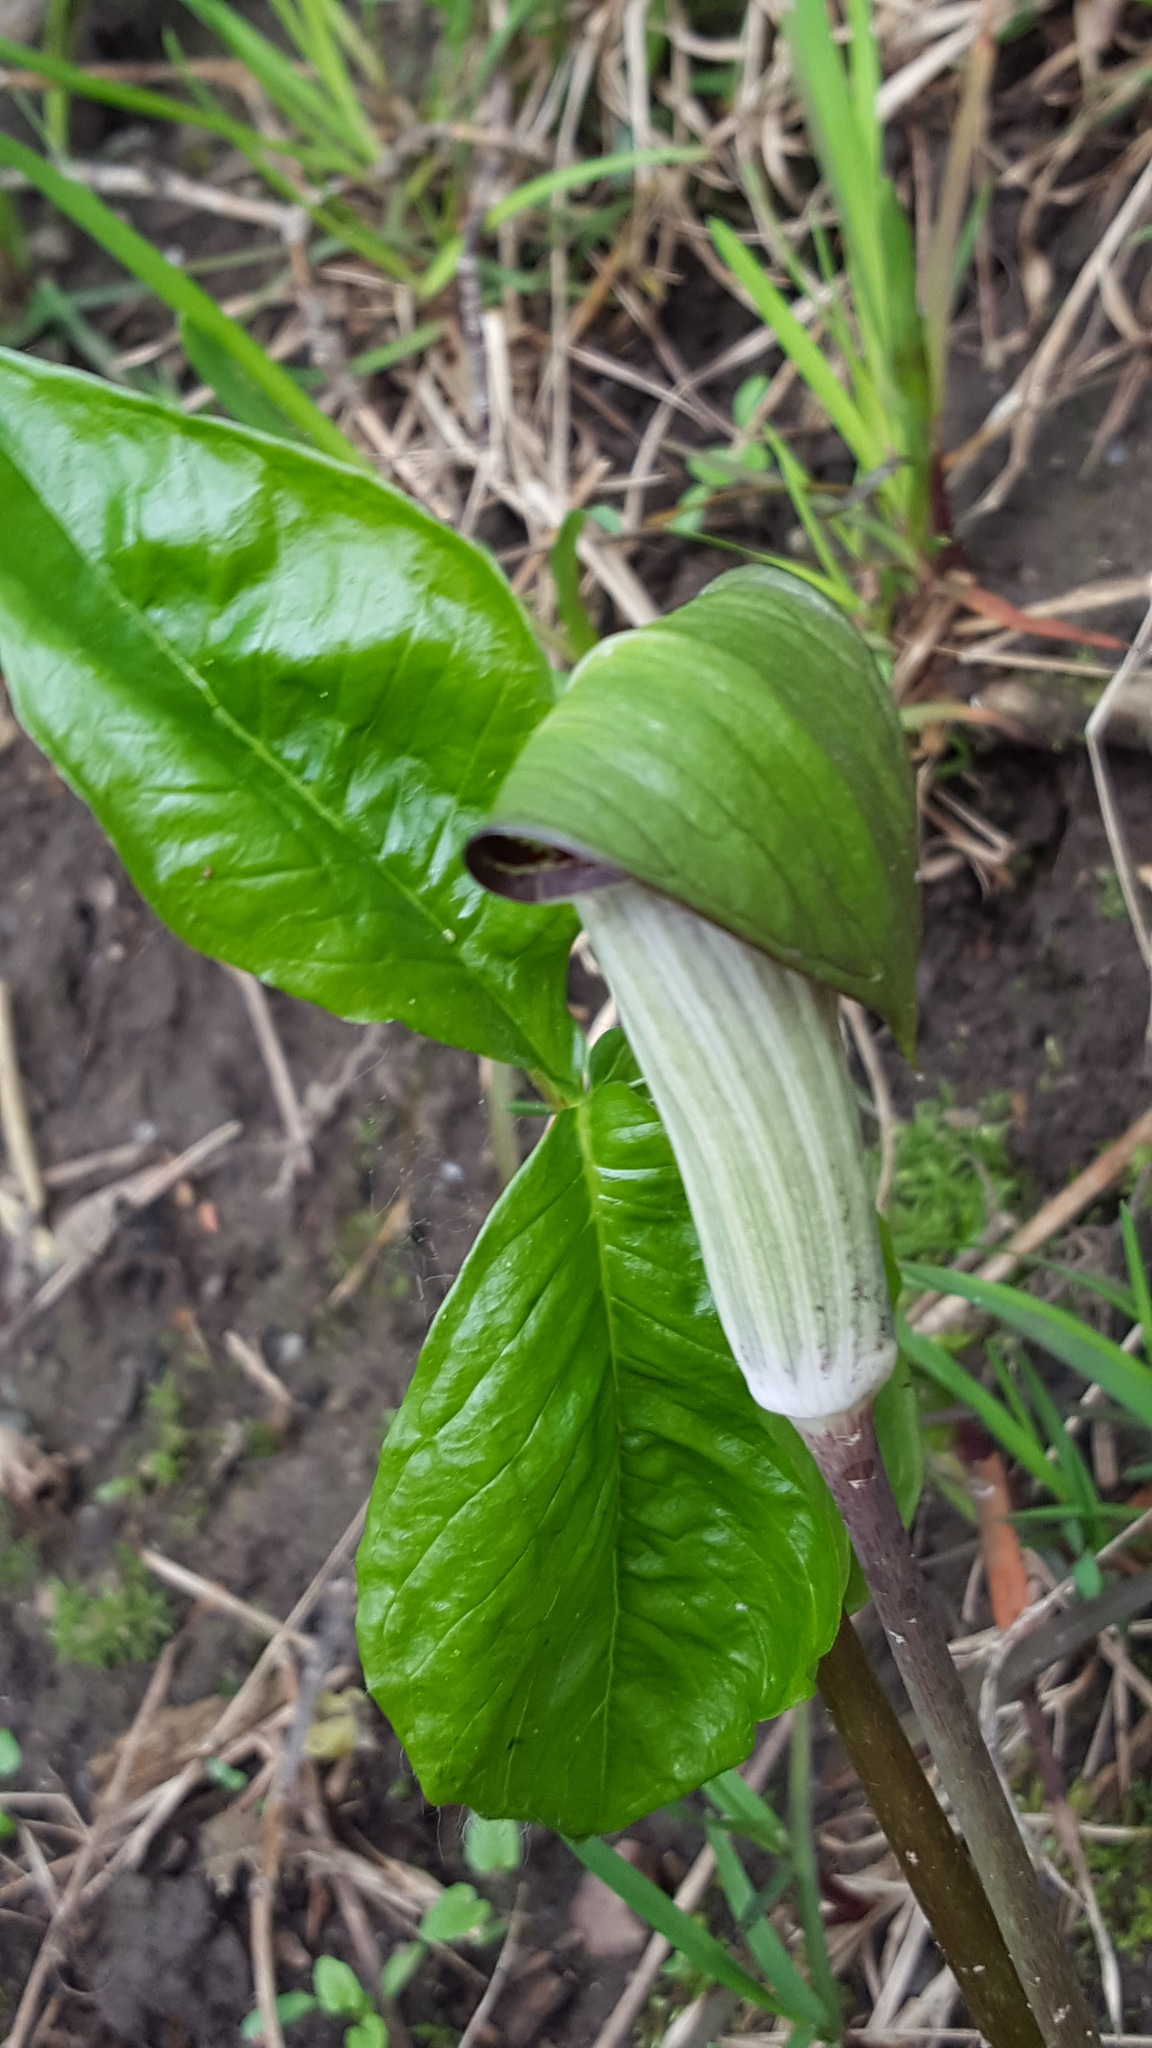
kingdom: Plantae
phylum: Tracheophyta
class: Liliopsida
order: Alismatales
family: Araceae
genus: Arisaema
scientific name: Arisaema triphyllum
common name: Jack-in-the-pulpit
